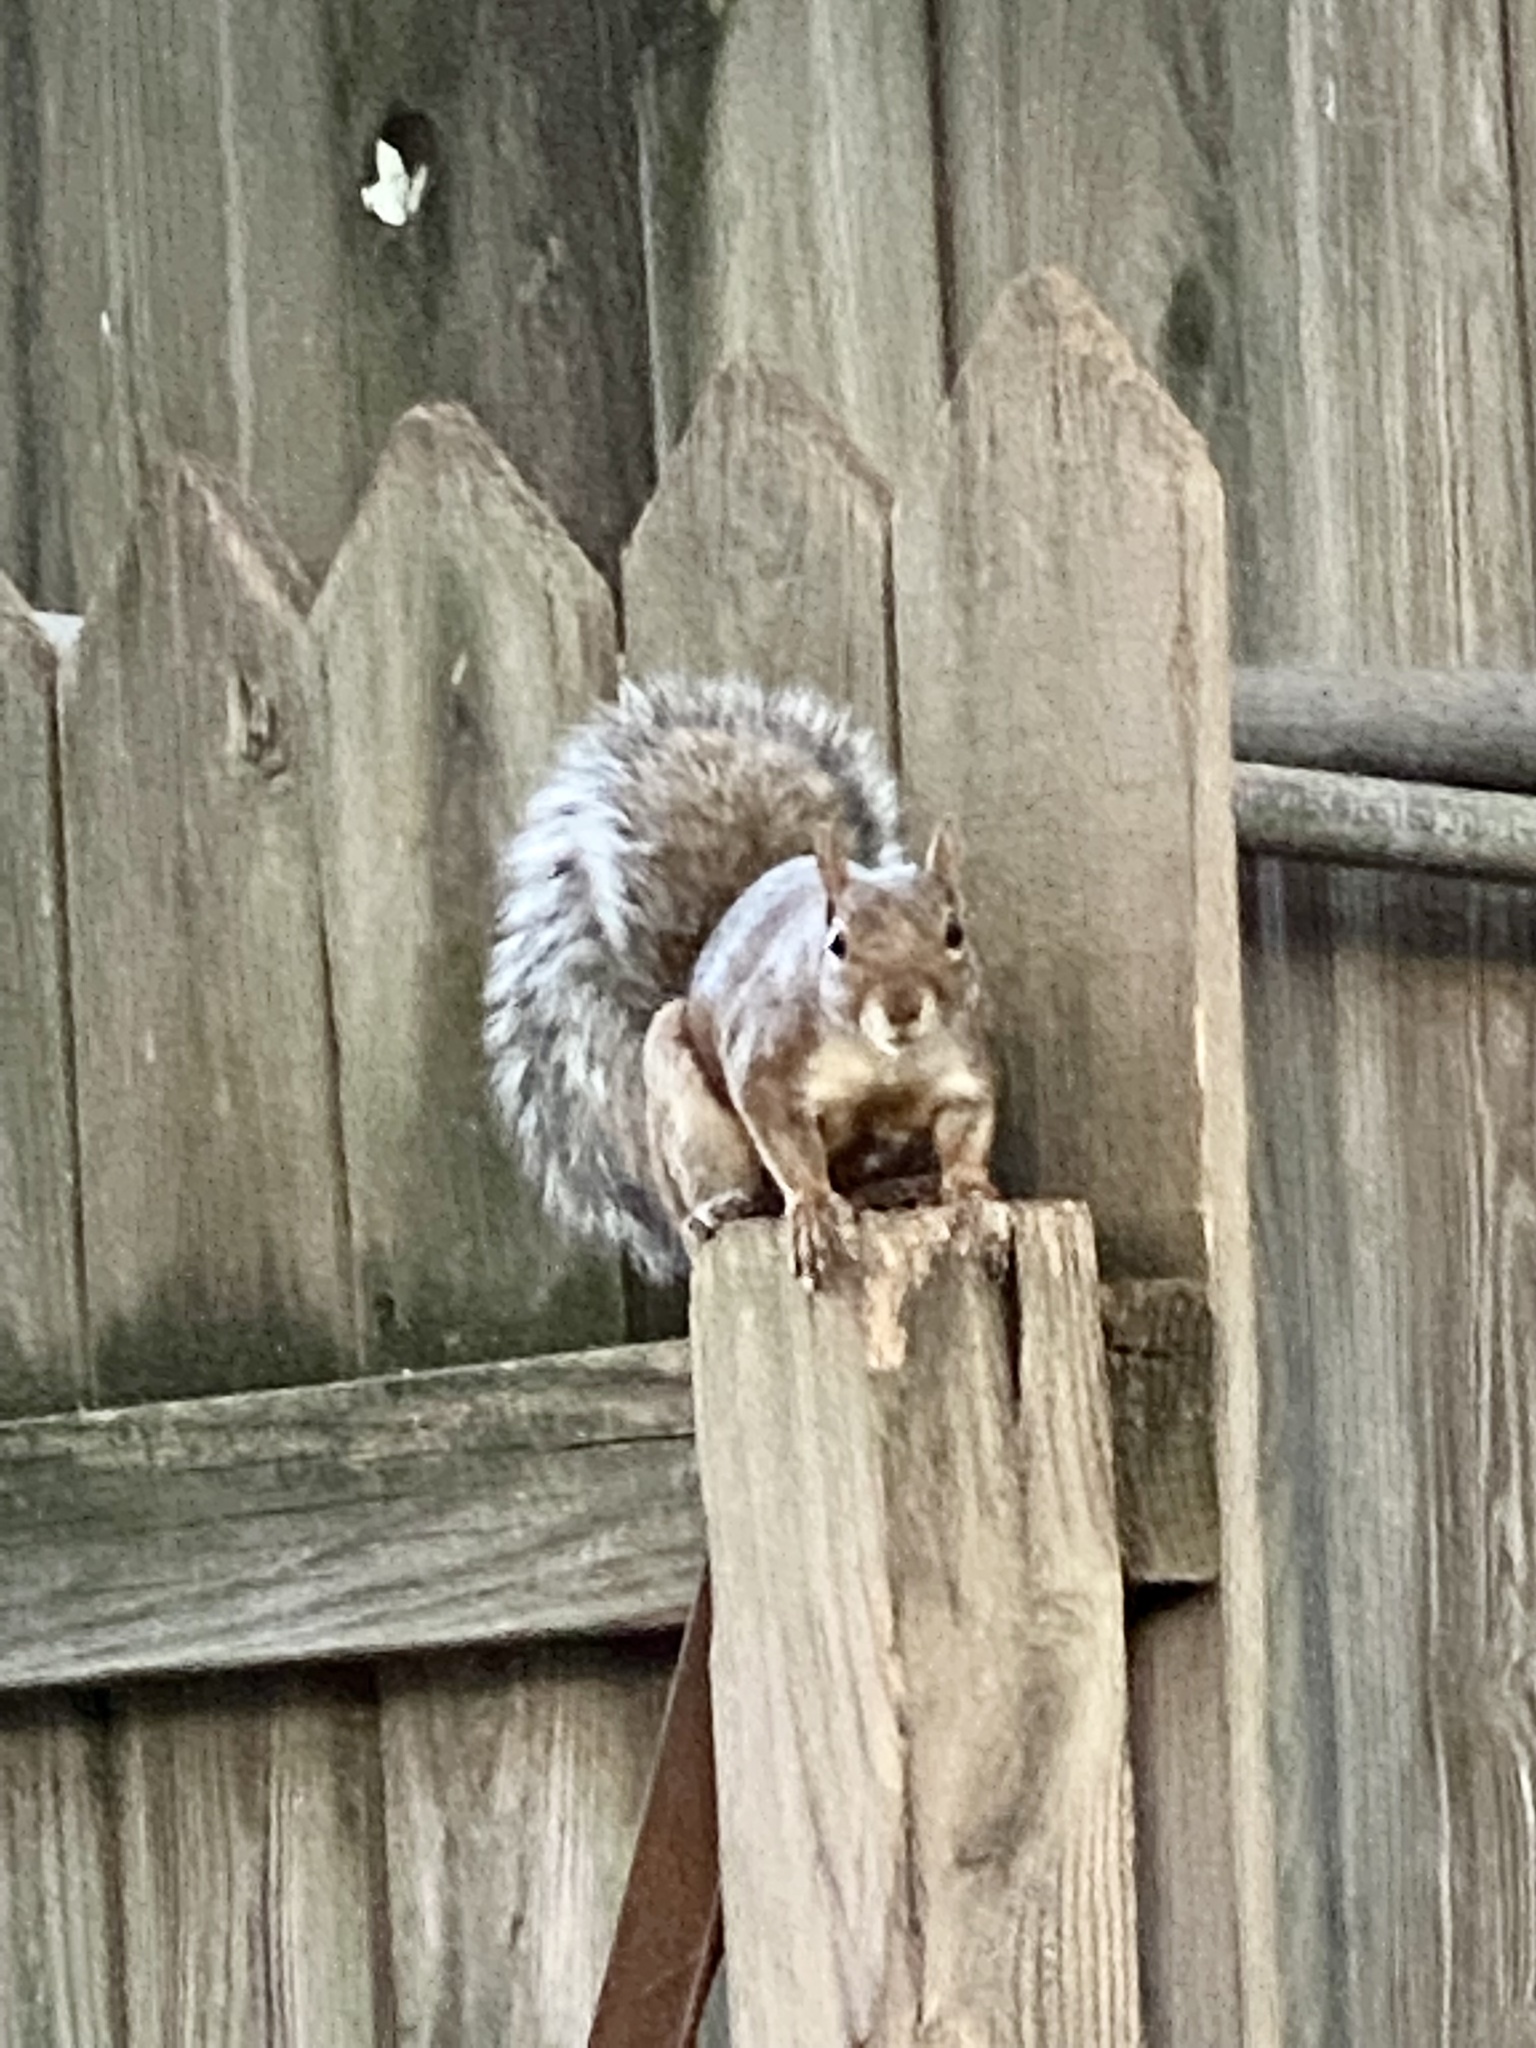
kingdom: Animalia
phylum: Chordata
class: Mammalia
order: Rodentia
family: Sciuridae
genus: Sciurus
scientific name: Sciurus carolinensis
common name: Eastern gray squirrel
